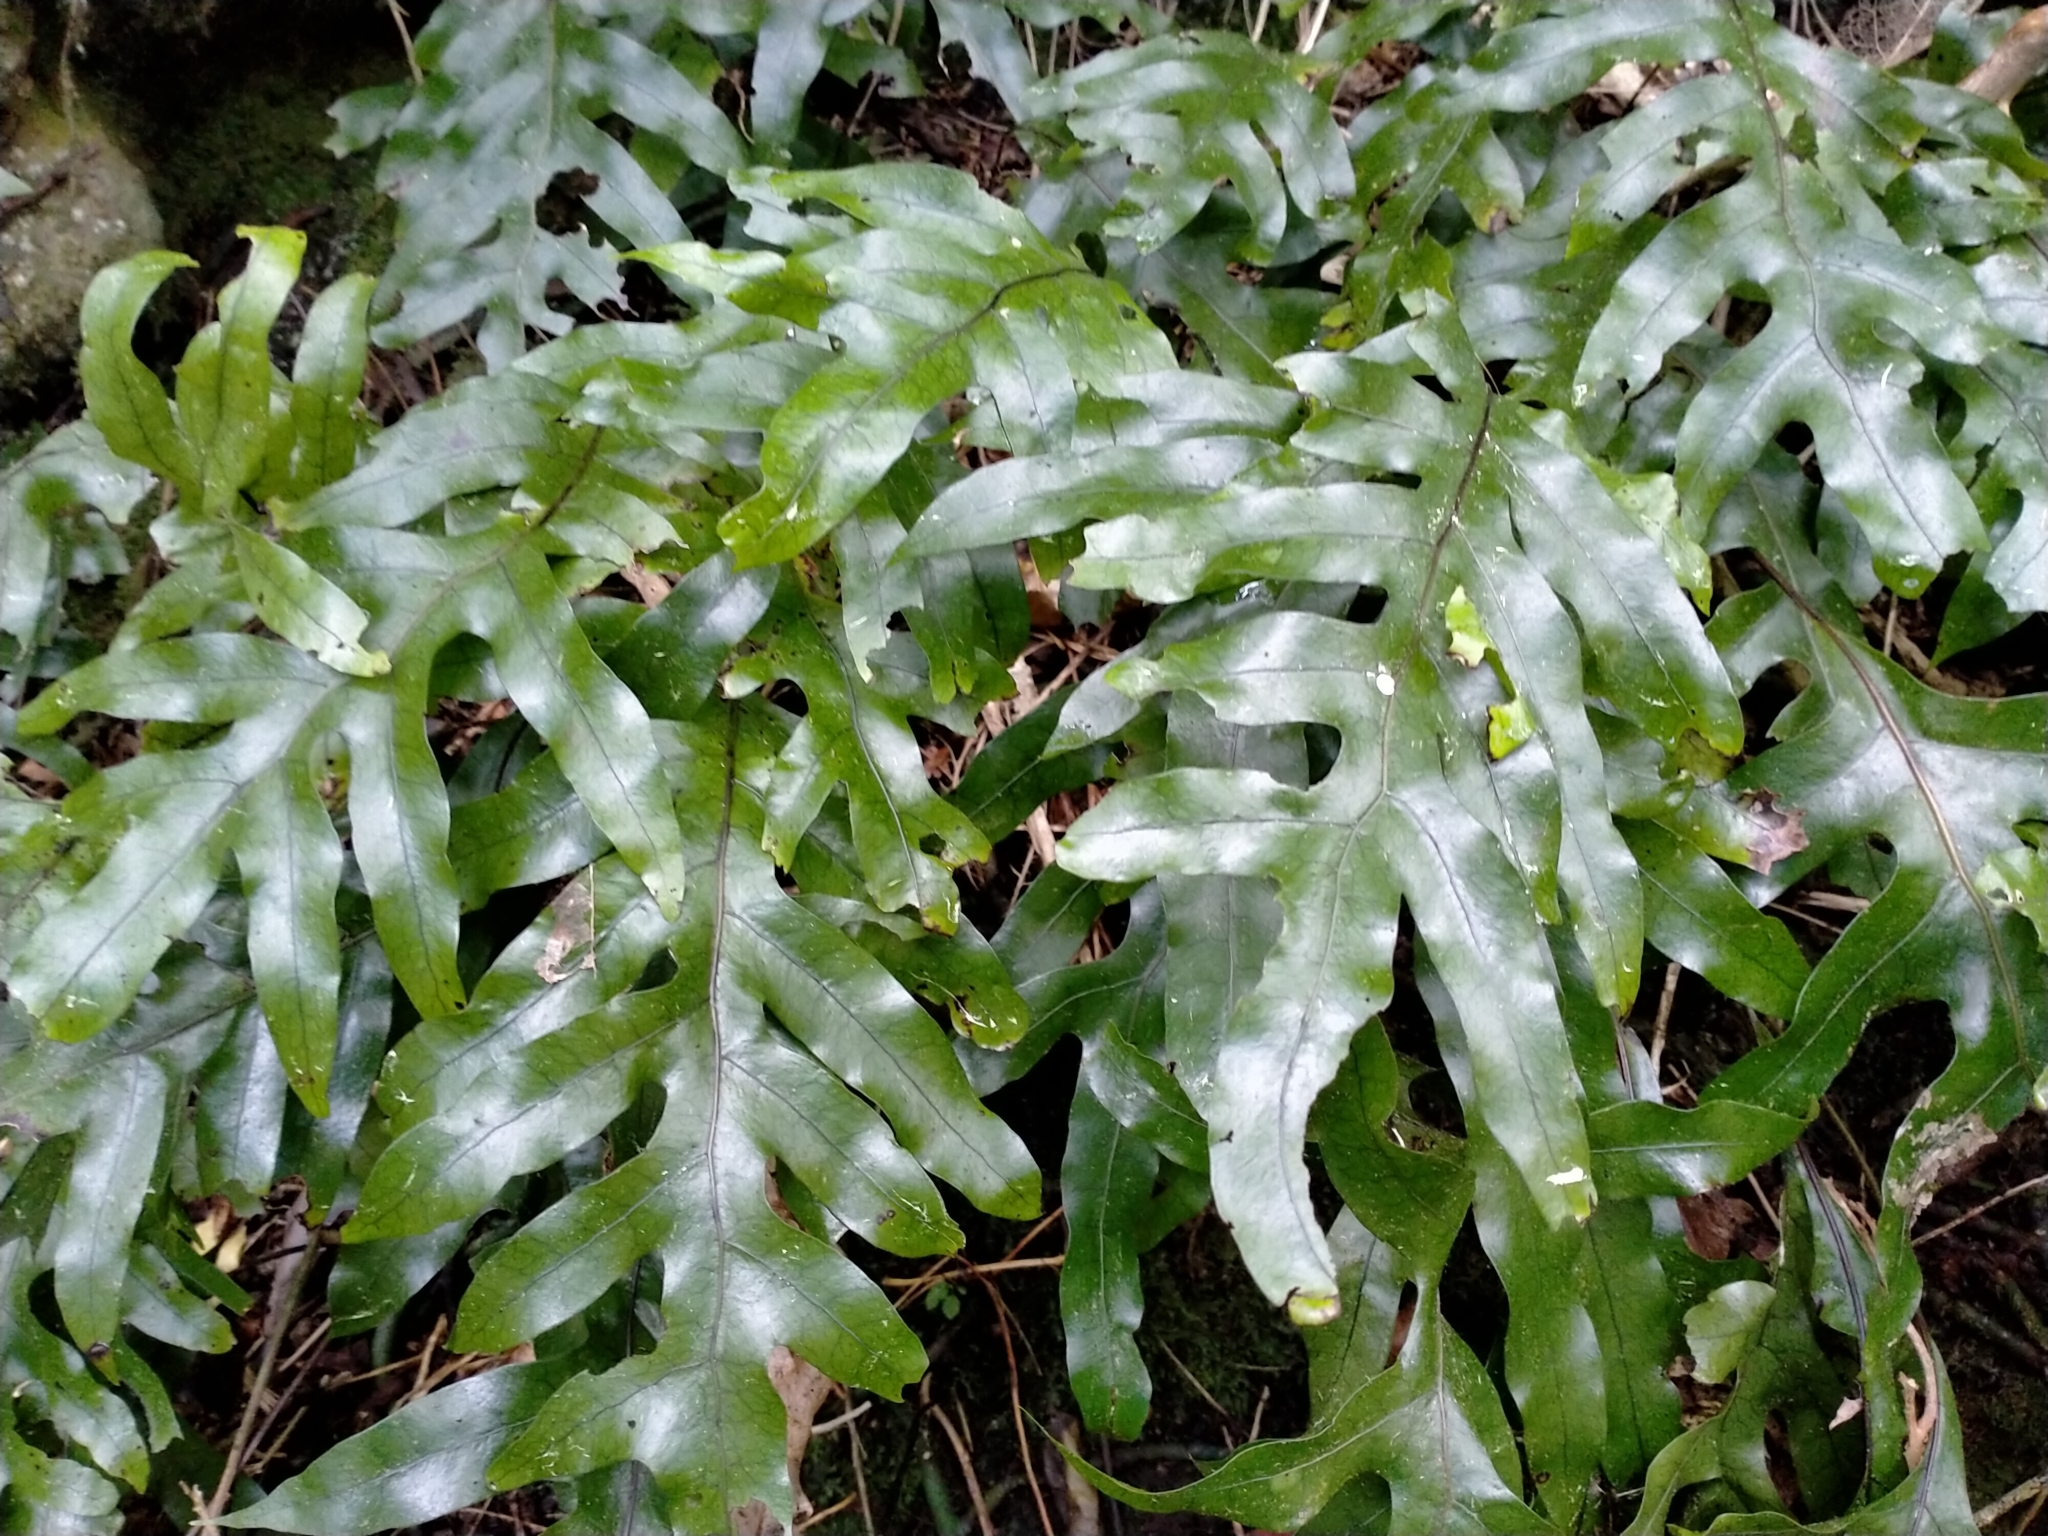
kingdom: Plantae
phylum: Tracheophyta
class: Polypodiopsida
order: Polypodiales
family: Polypodiaceae
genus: Lecanopteris
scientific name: Lecanopteris pustulata
